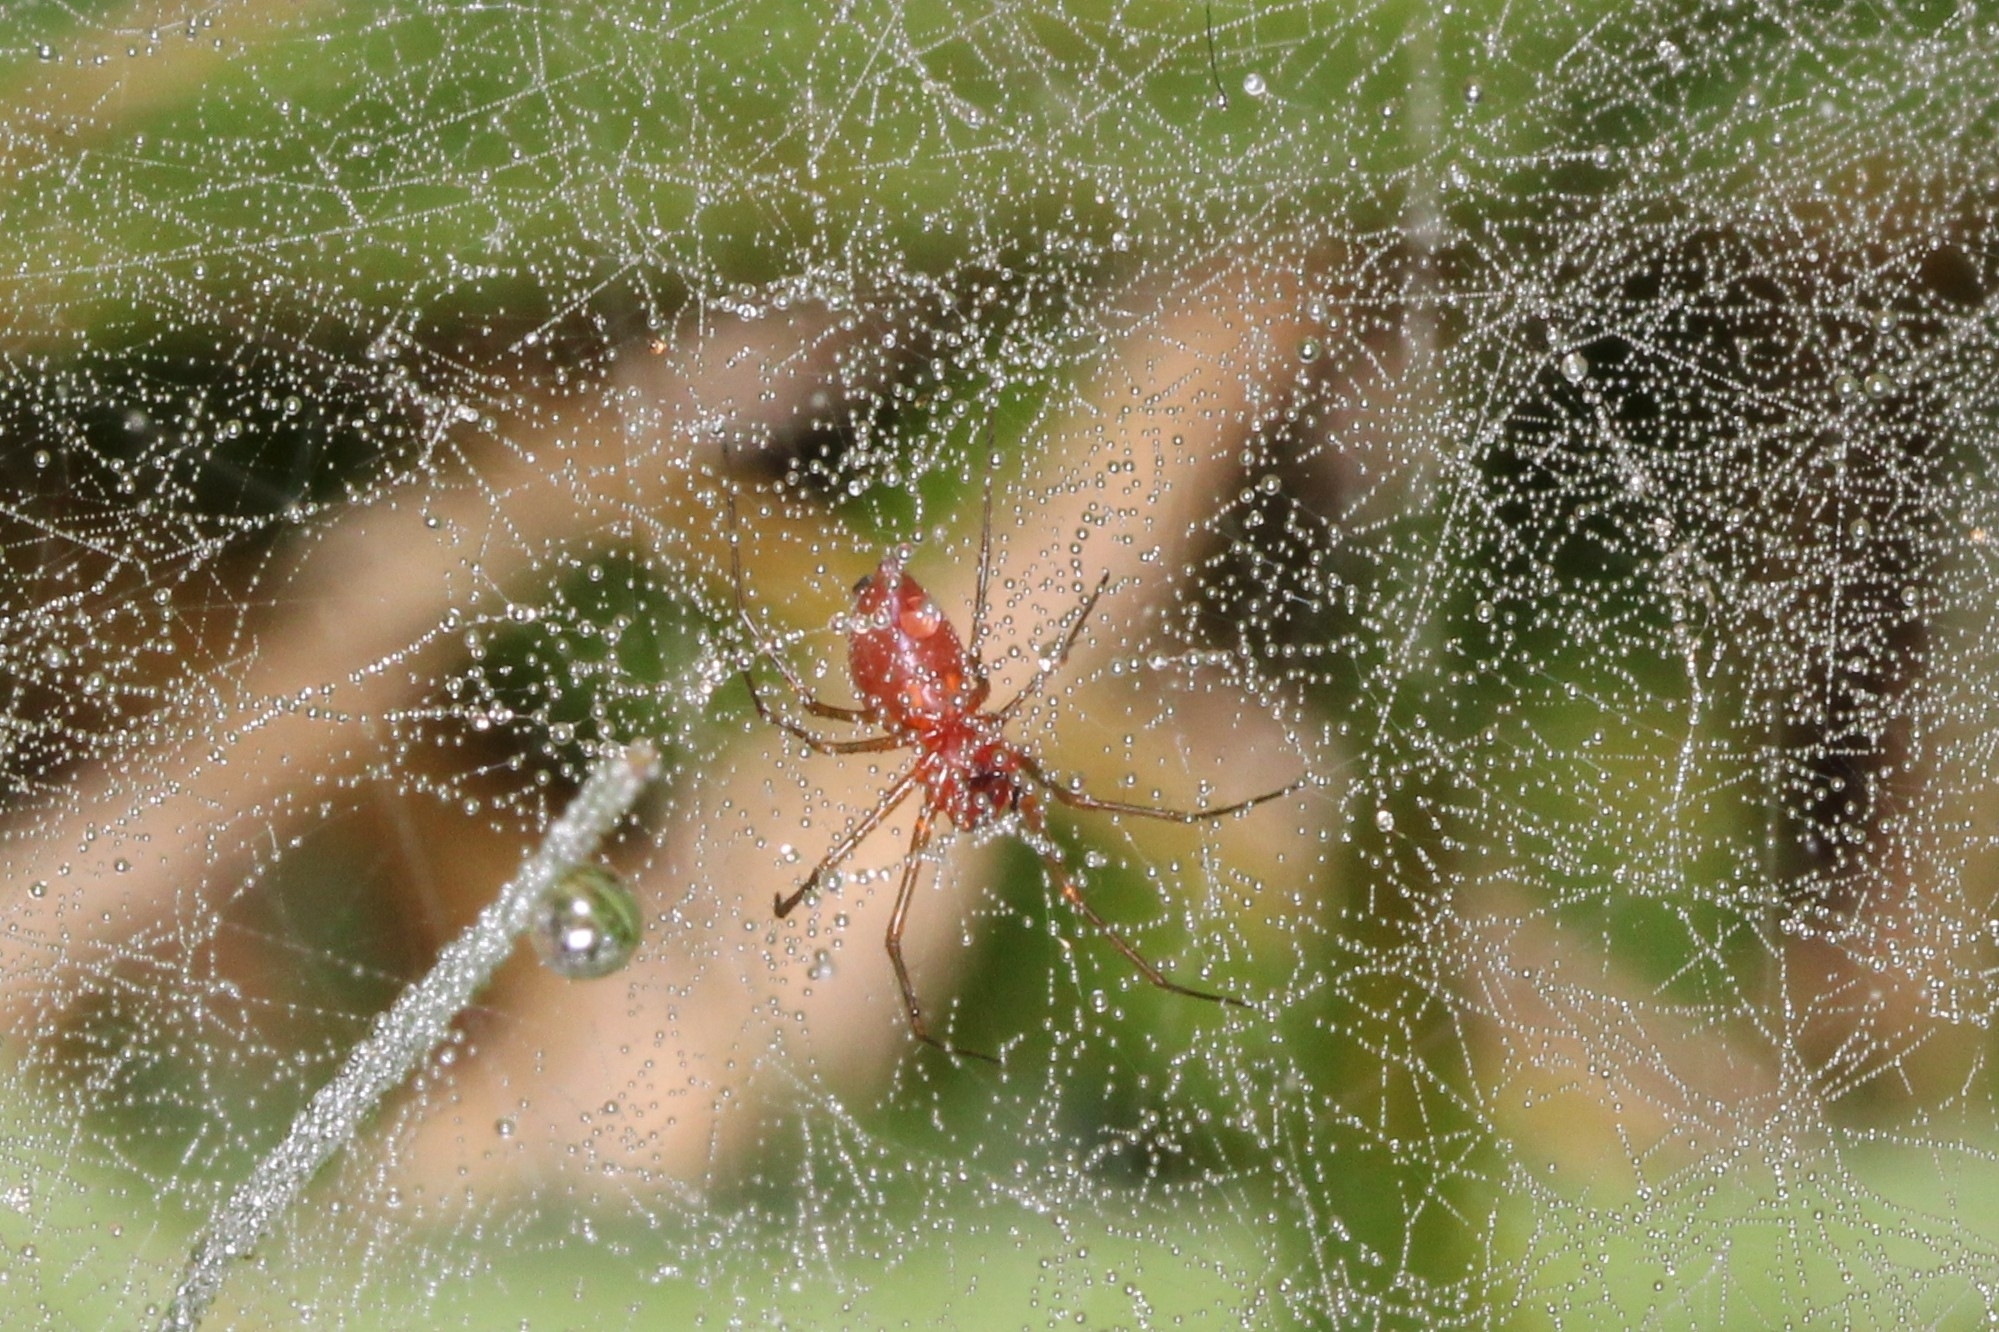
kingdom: Animalia
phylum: Arthropoda
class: Arachnida
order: Araneae
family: Linyphiidae
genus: Florinda
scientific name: Florinda coccinea
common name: Black-tailed red sheetweaver
